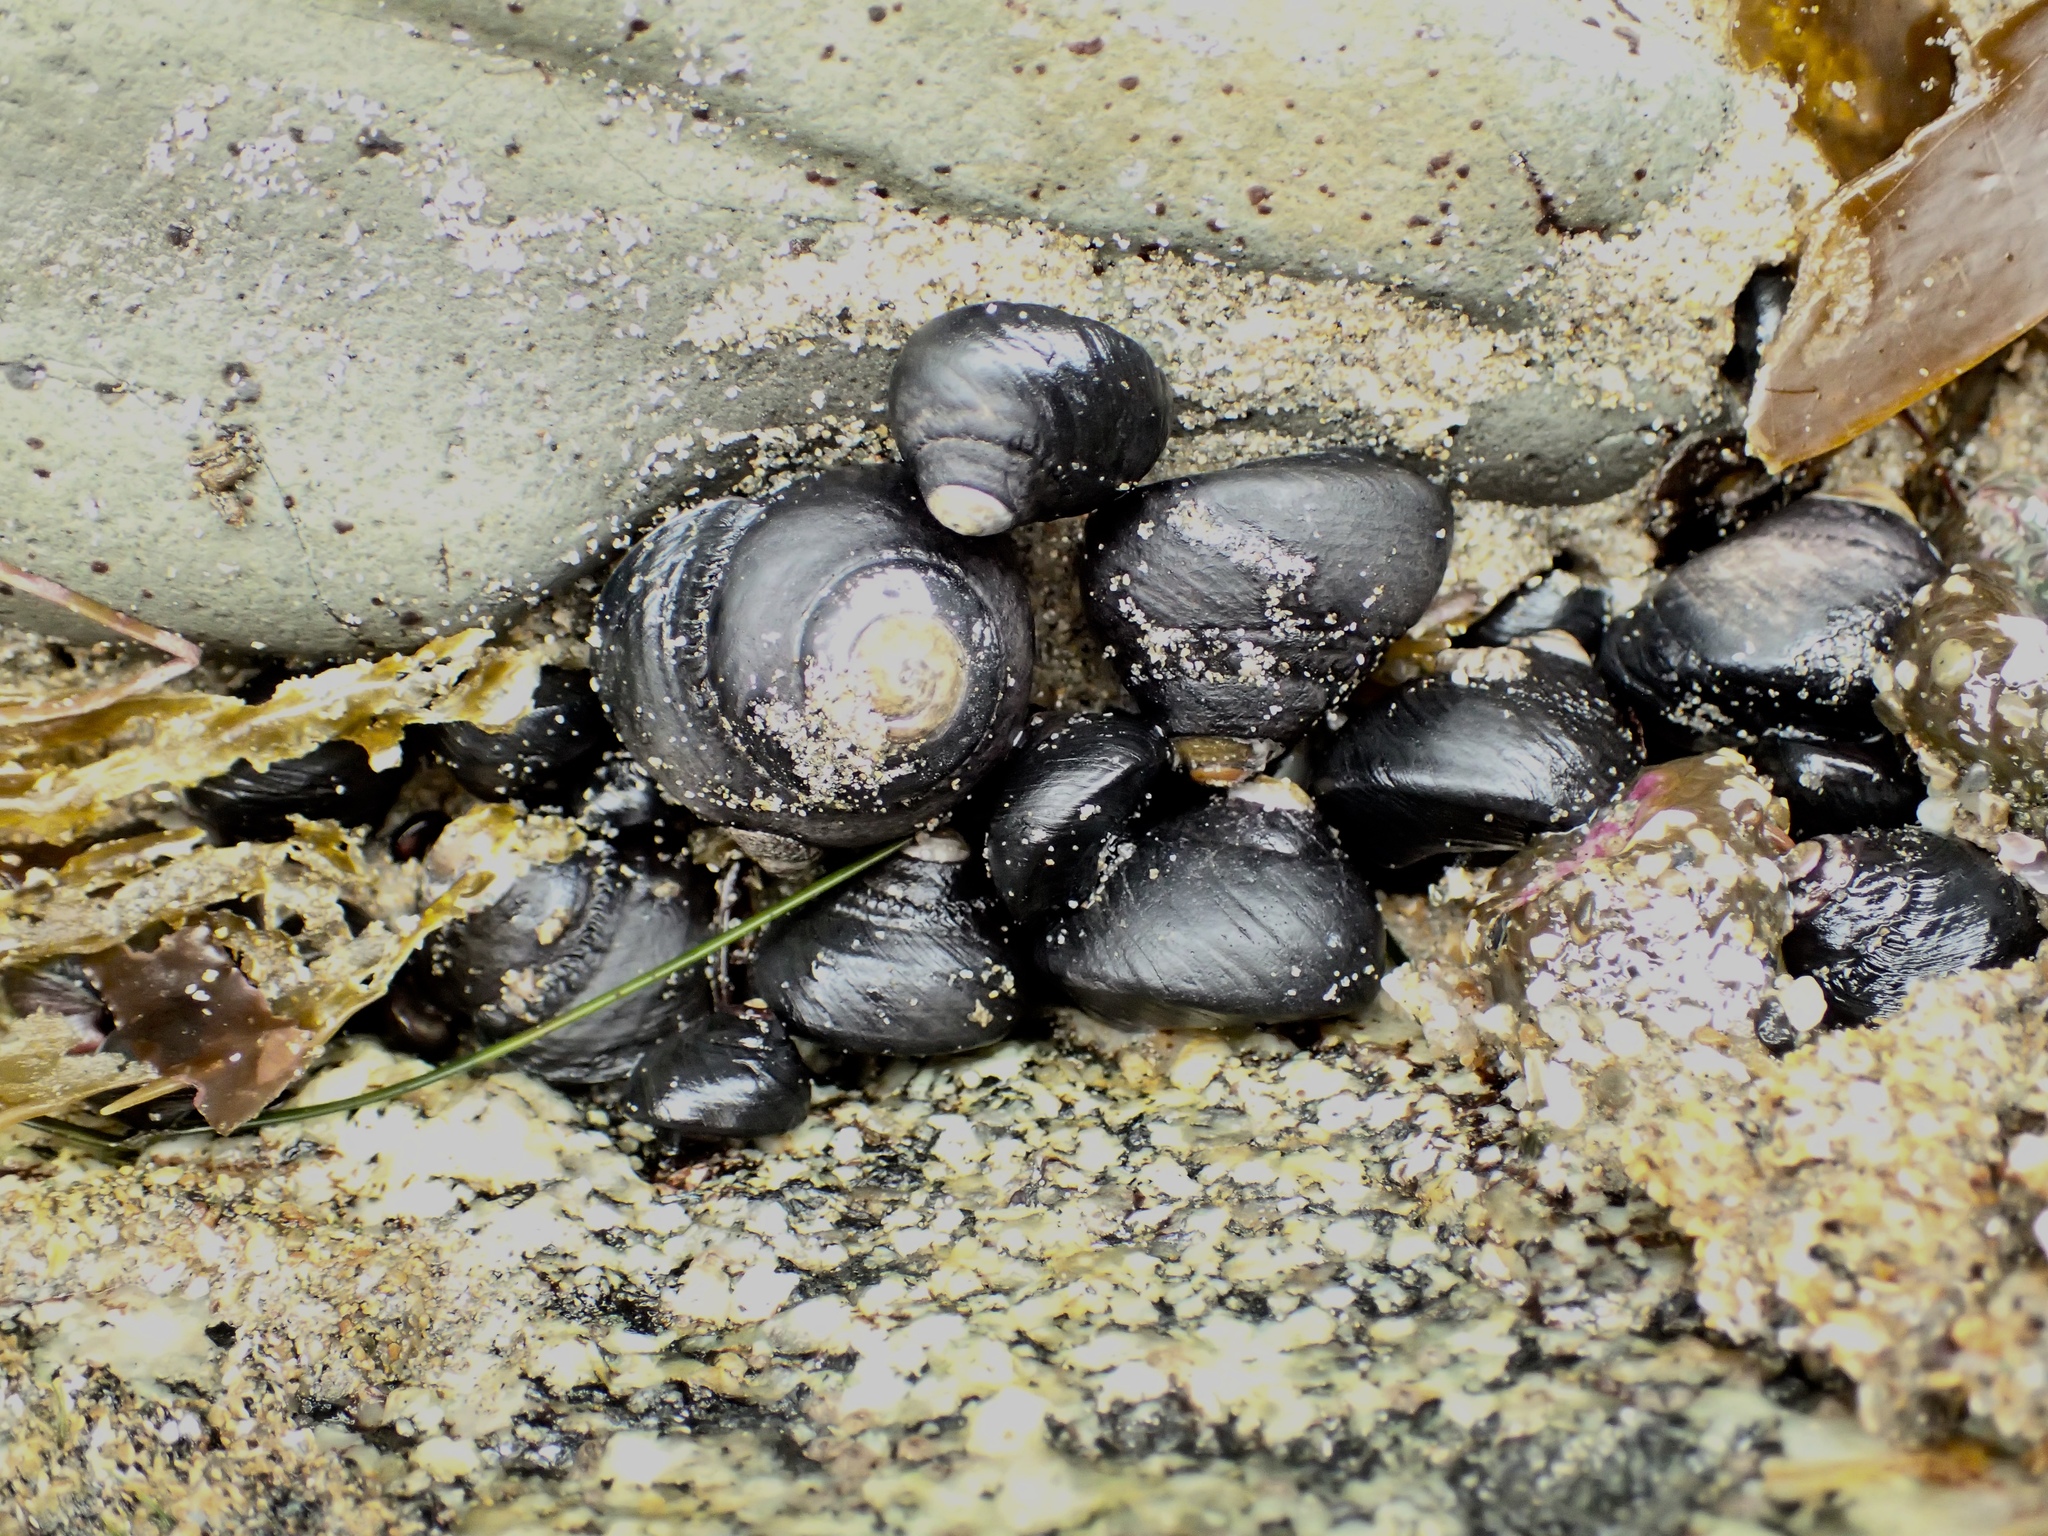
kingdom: Animalia
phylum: Mollusca
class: Gastropoda
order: Trochida
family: Tegulidae
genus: Tegula
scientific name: Tegula funebralis
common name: Black tegula
